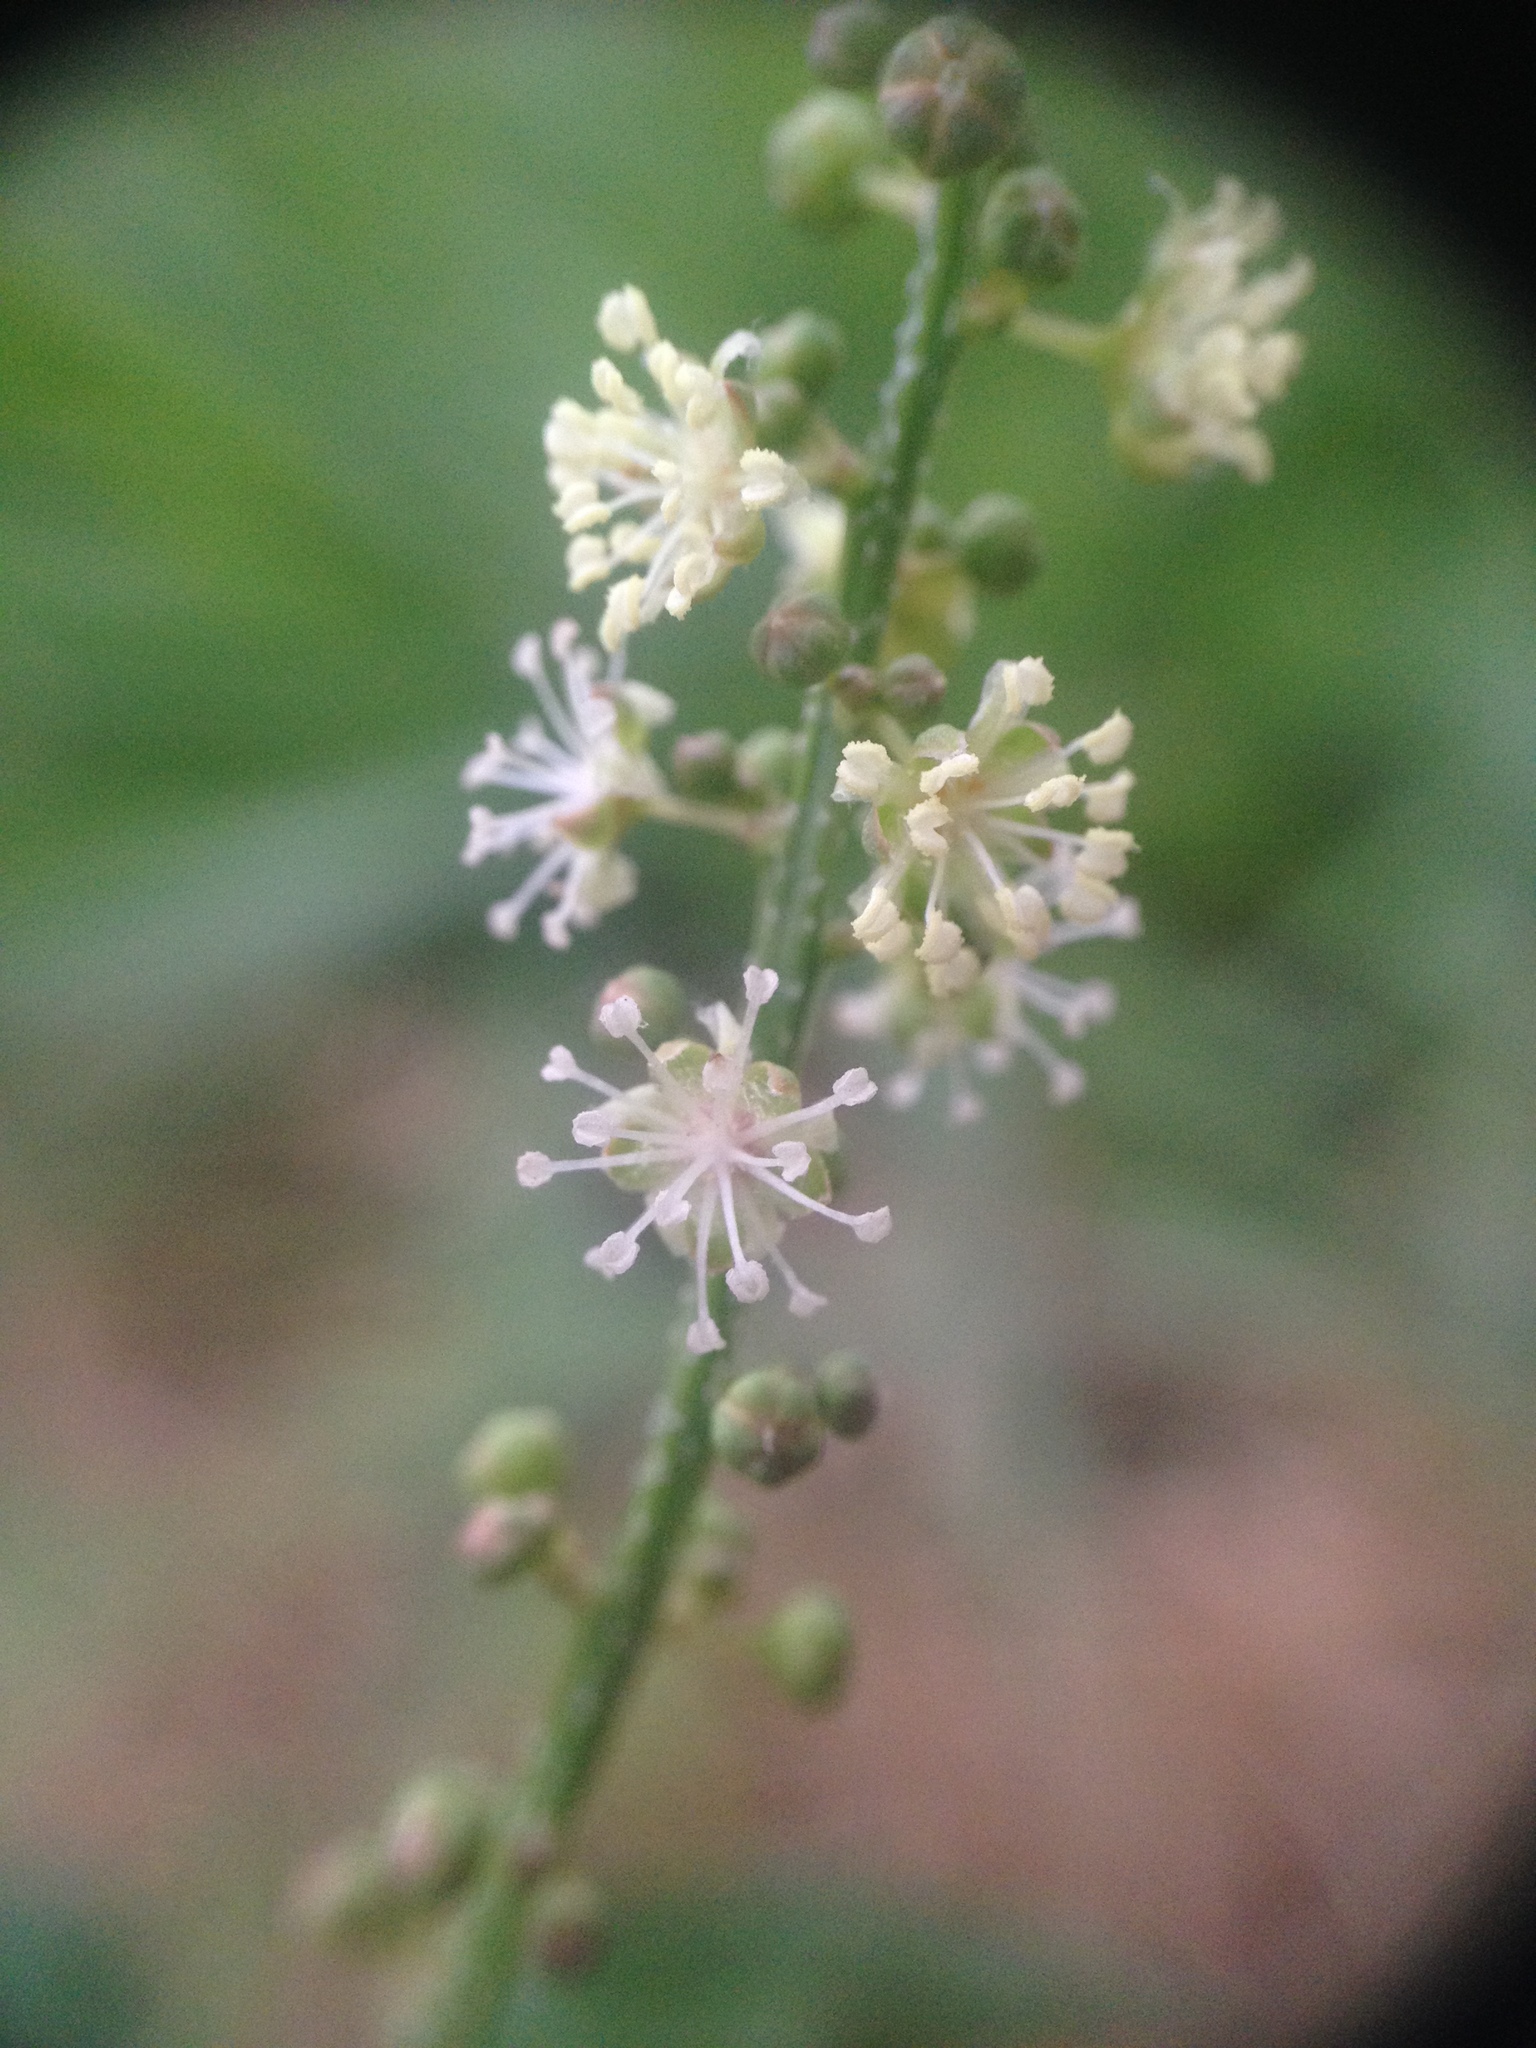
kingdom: Plantae
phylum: Tracheophyta
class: Magnoliopsida
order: Malpighiales
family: Euphorbiaceae
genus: Croton
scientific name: Croton bonplandianus
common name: Bonpland's croton
